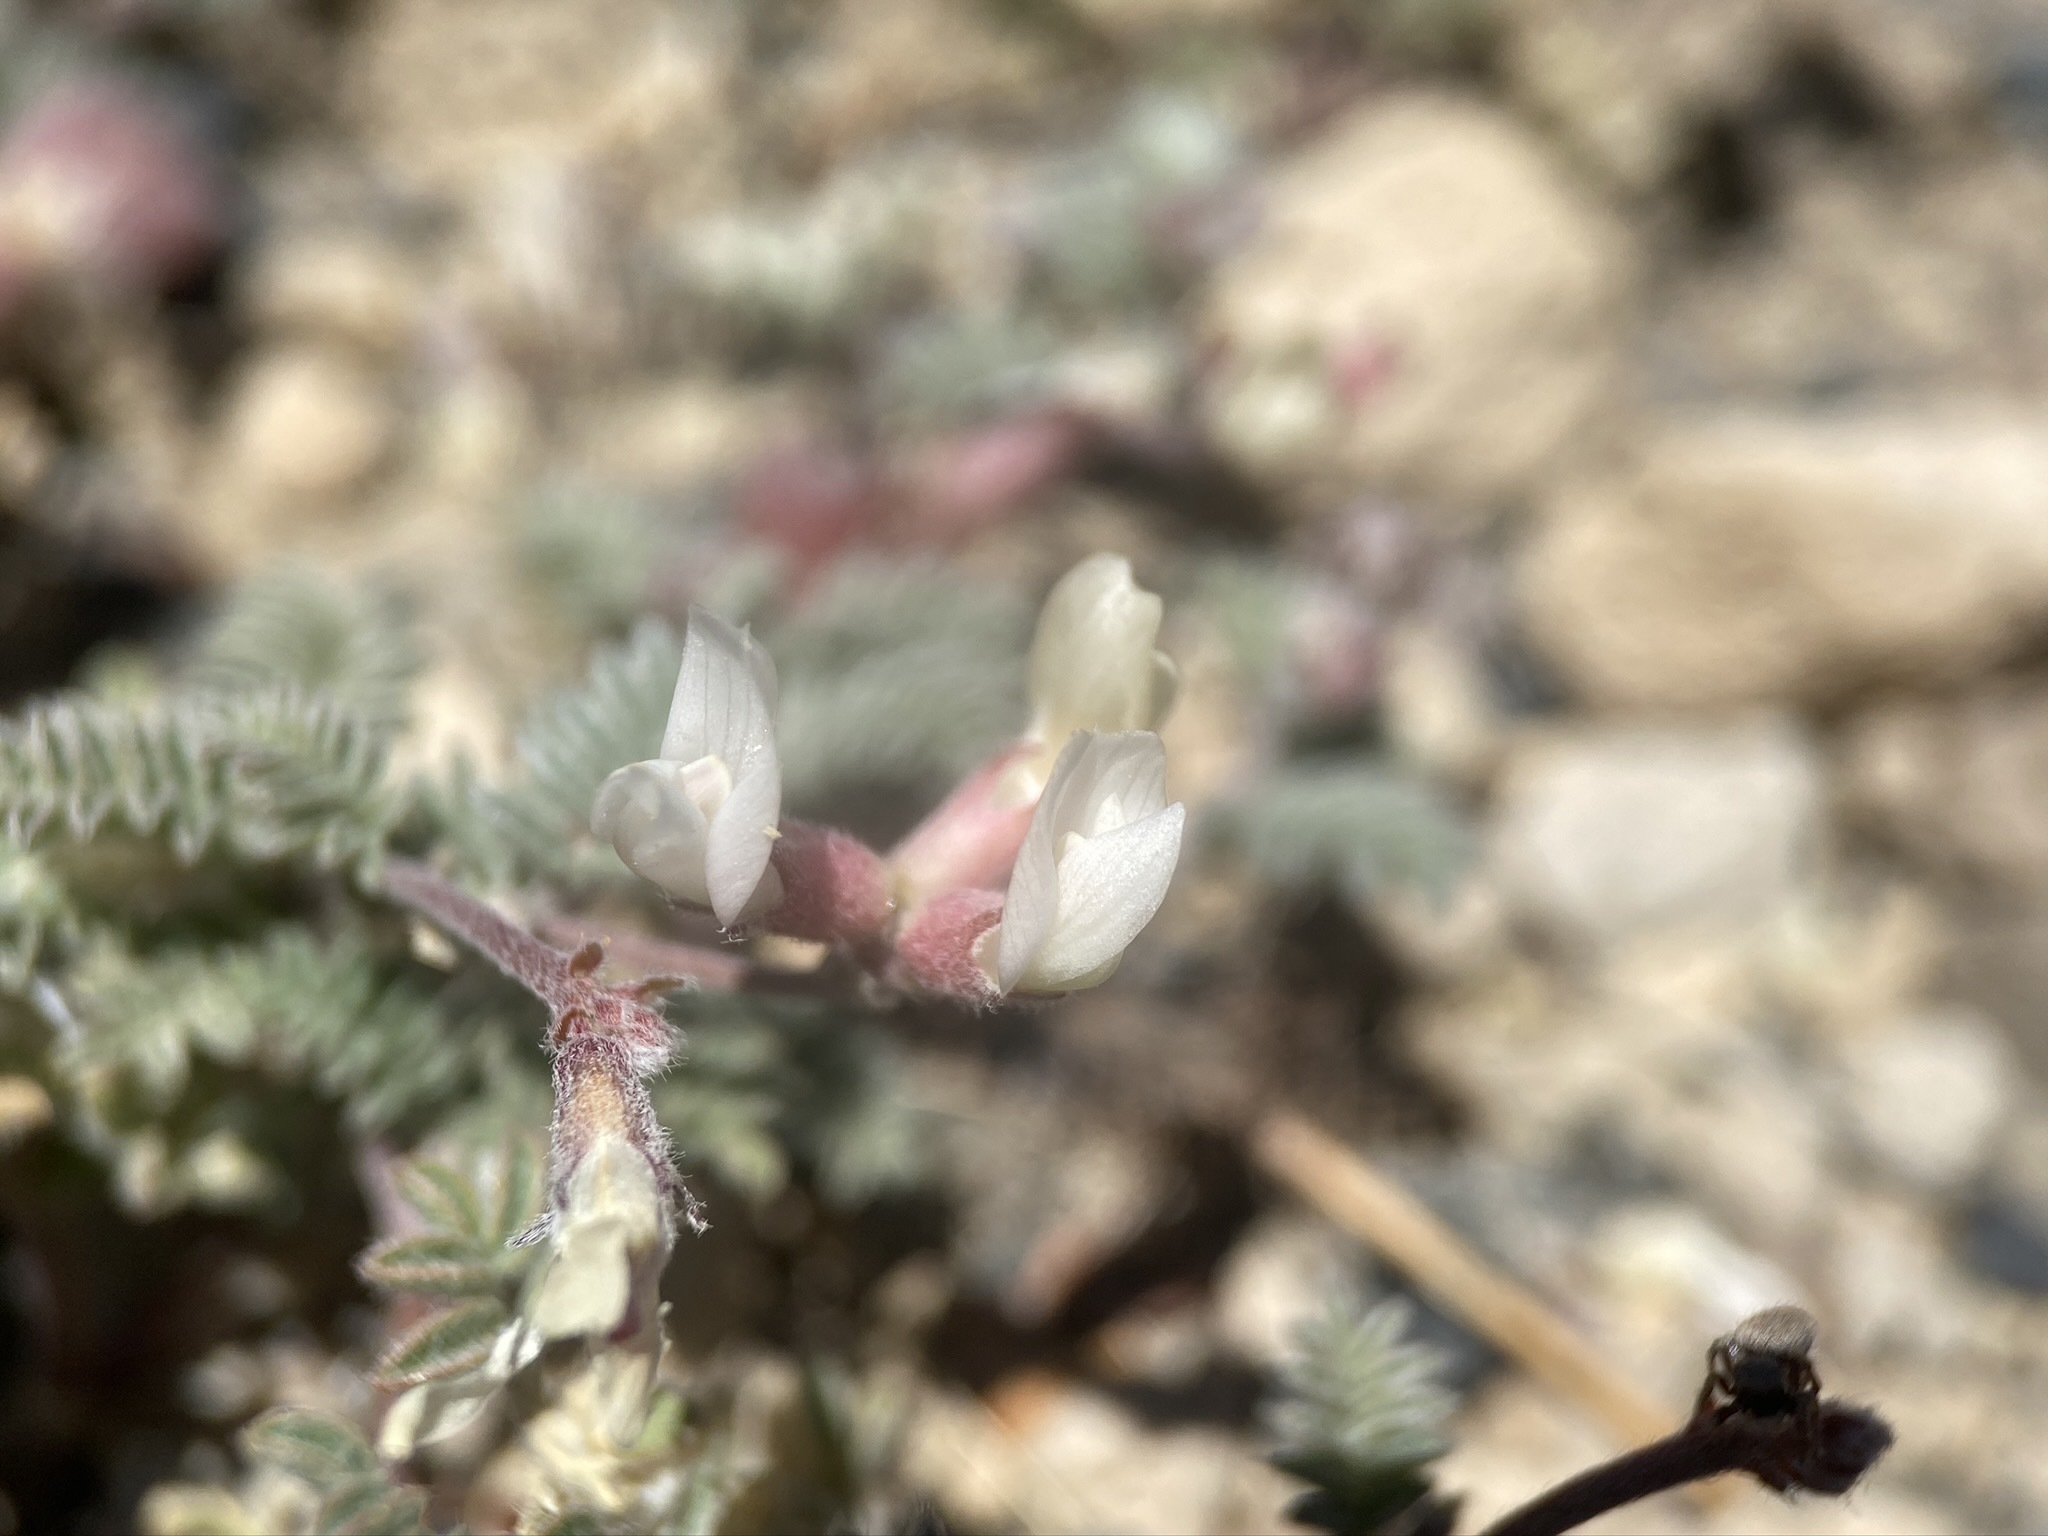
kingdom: Plantae
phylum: Tracheophyta
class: Magnoliopsida
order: Fabales
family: Fabaceae
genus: Astragalus
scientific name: Astragalus monoensis
